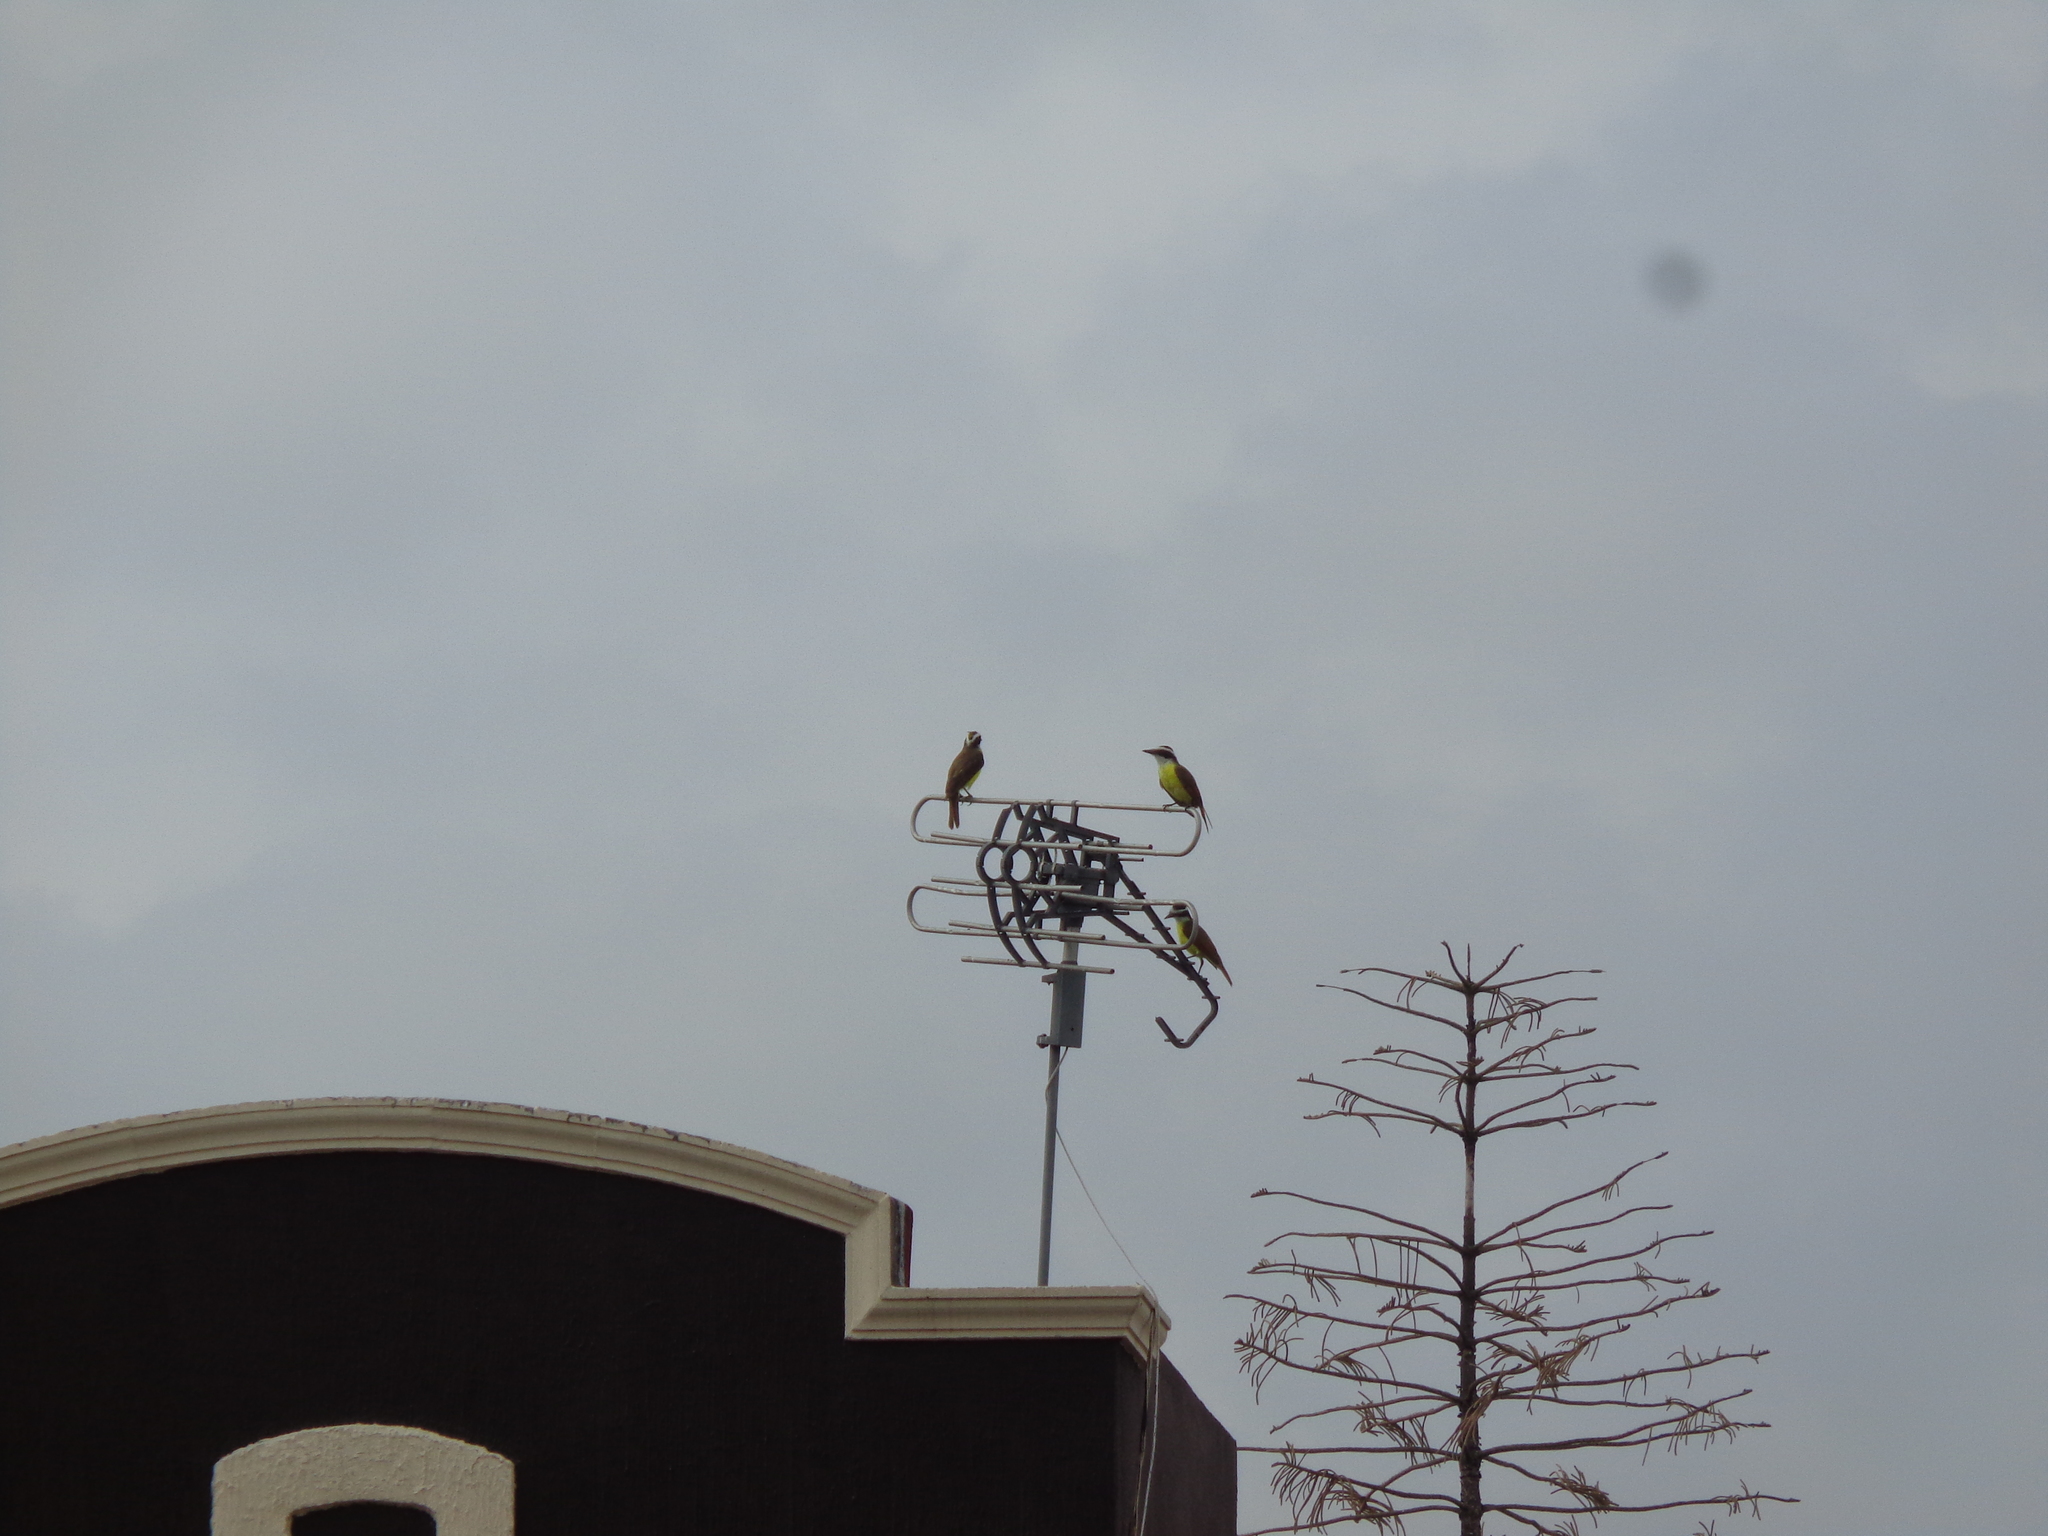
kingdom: Animalia
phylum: Chordata
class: Aves
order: Passeriformes
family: Tyrannidae
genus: Pitangus
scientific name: Pitangus sulphuratus
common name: Great kiskadee
